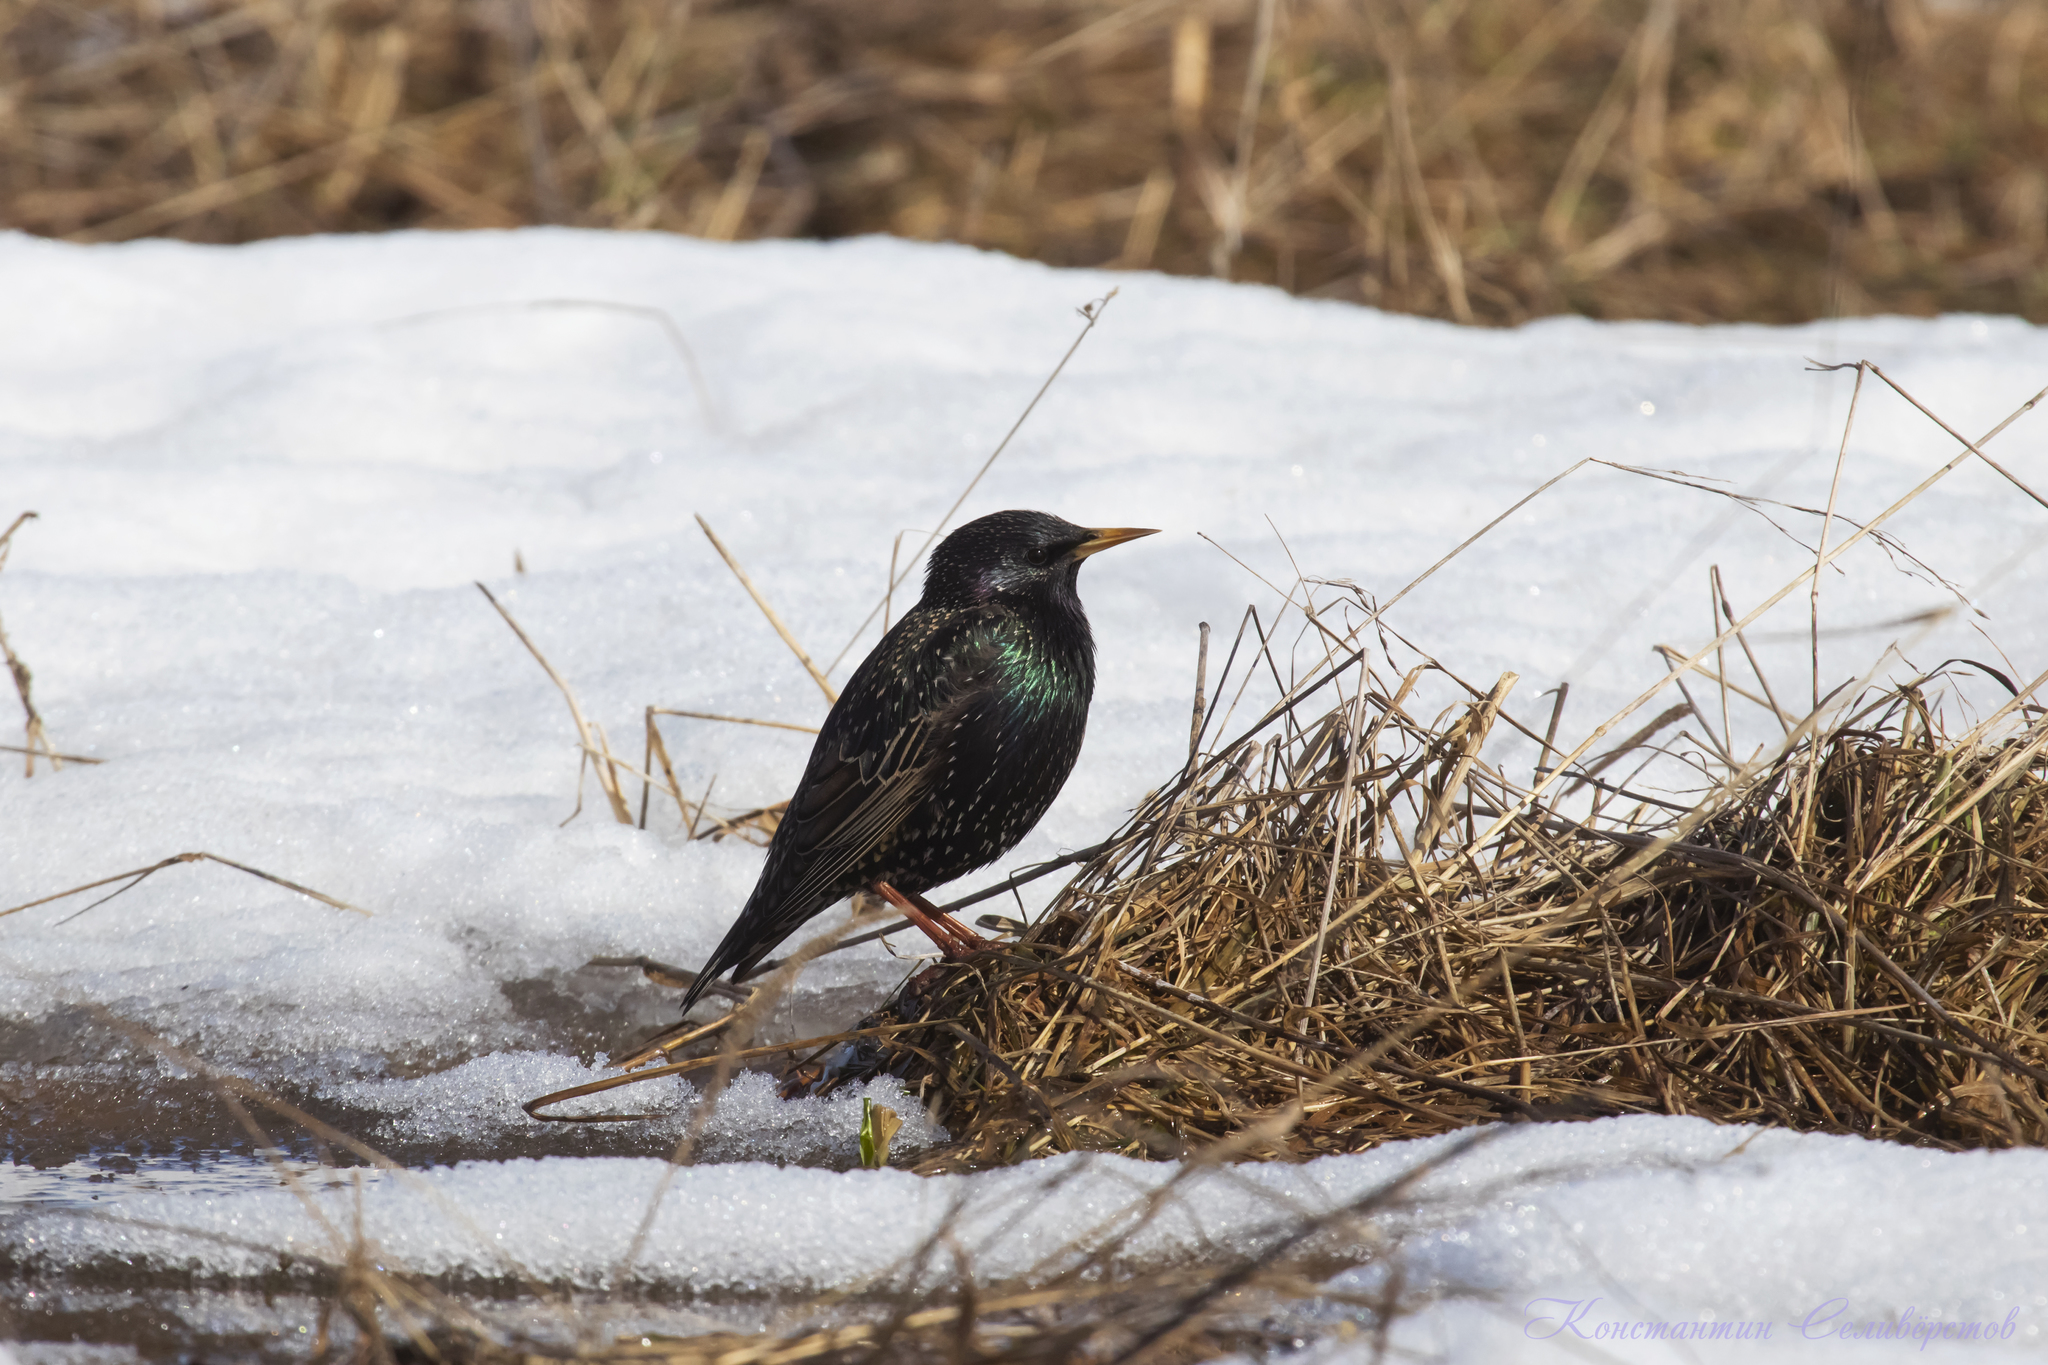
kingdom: Animalia
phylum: Chordata
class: Aves
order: Passeriformes
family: Sturnidae
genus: Sturnus
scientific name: Sturnus vulgaris
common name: Common starling
